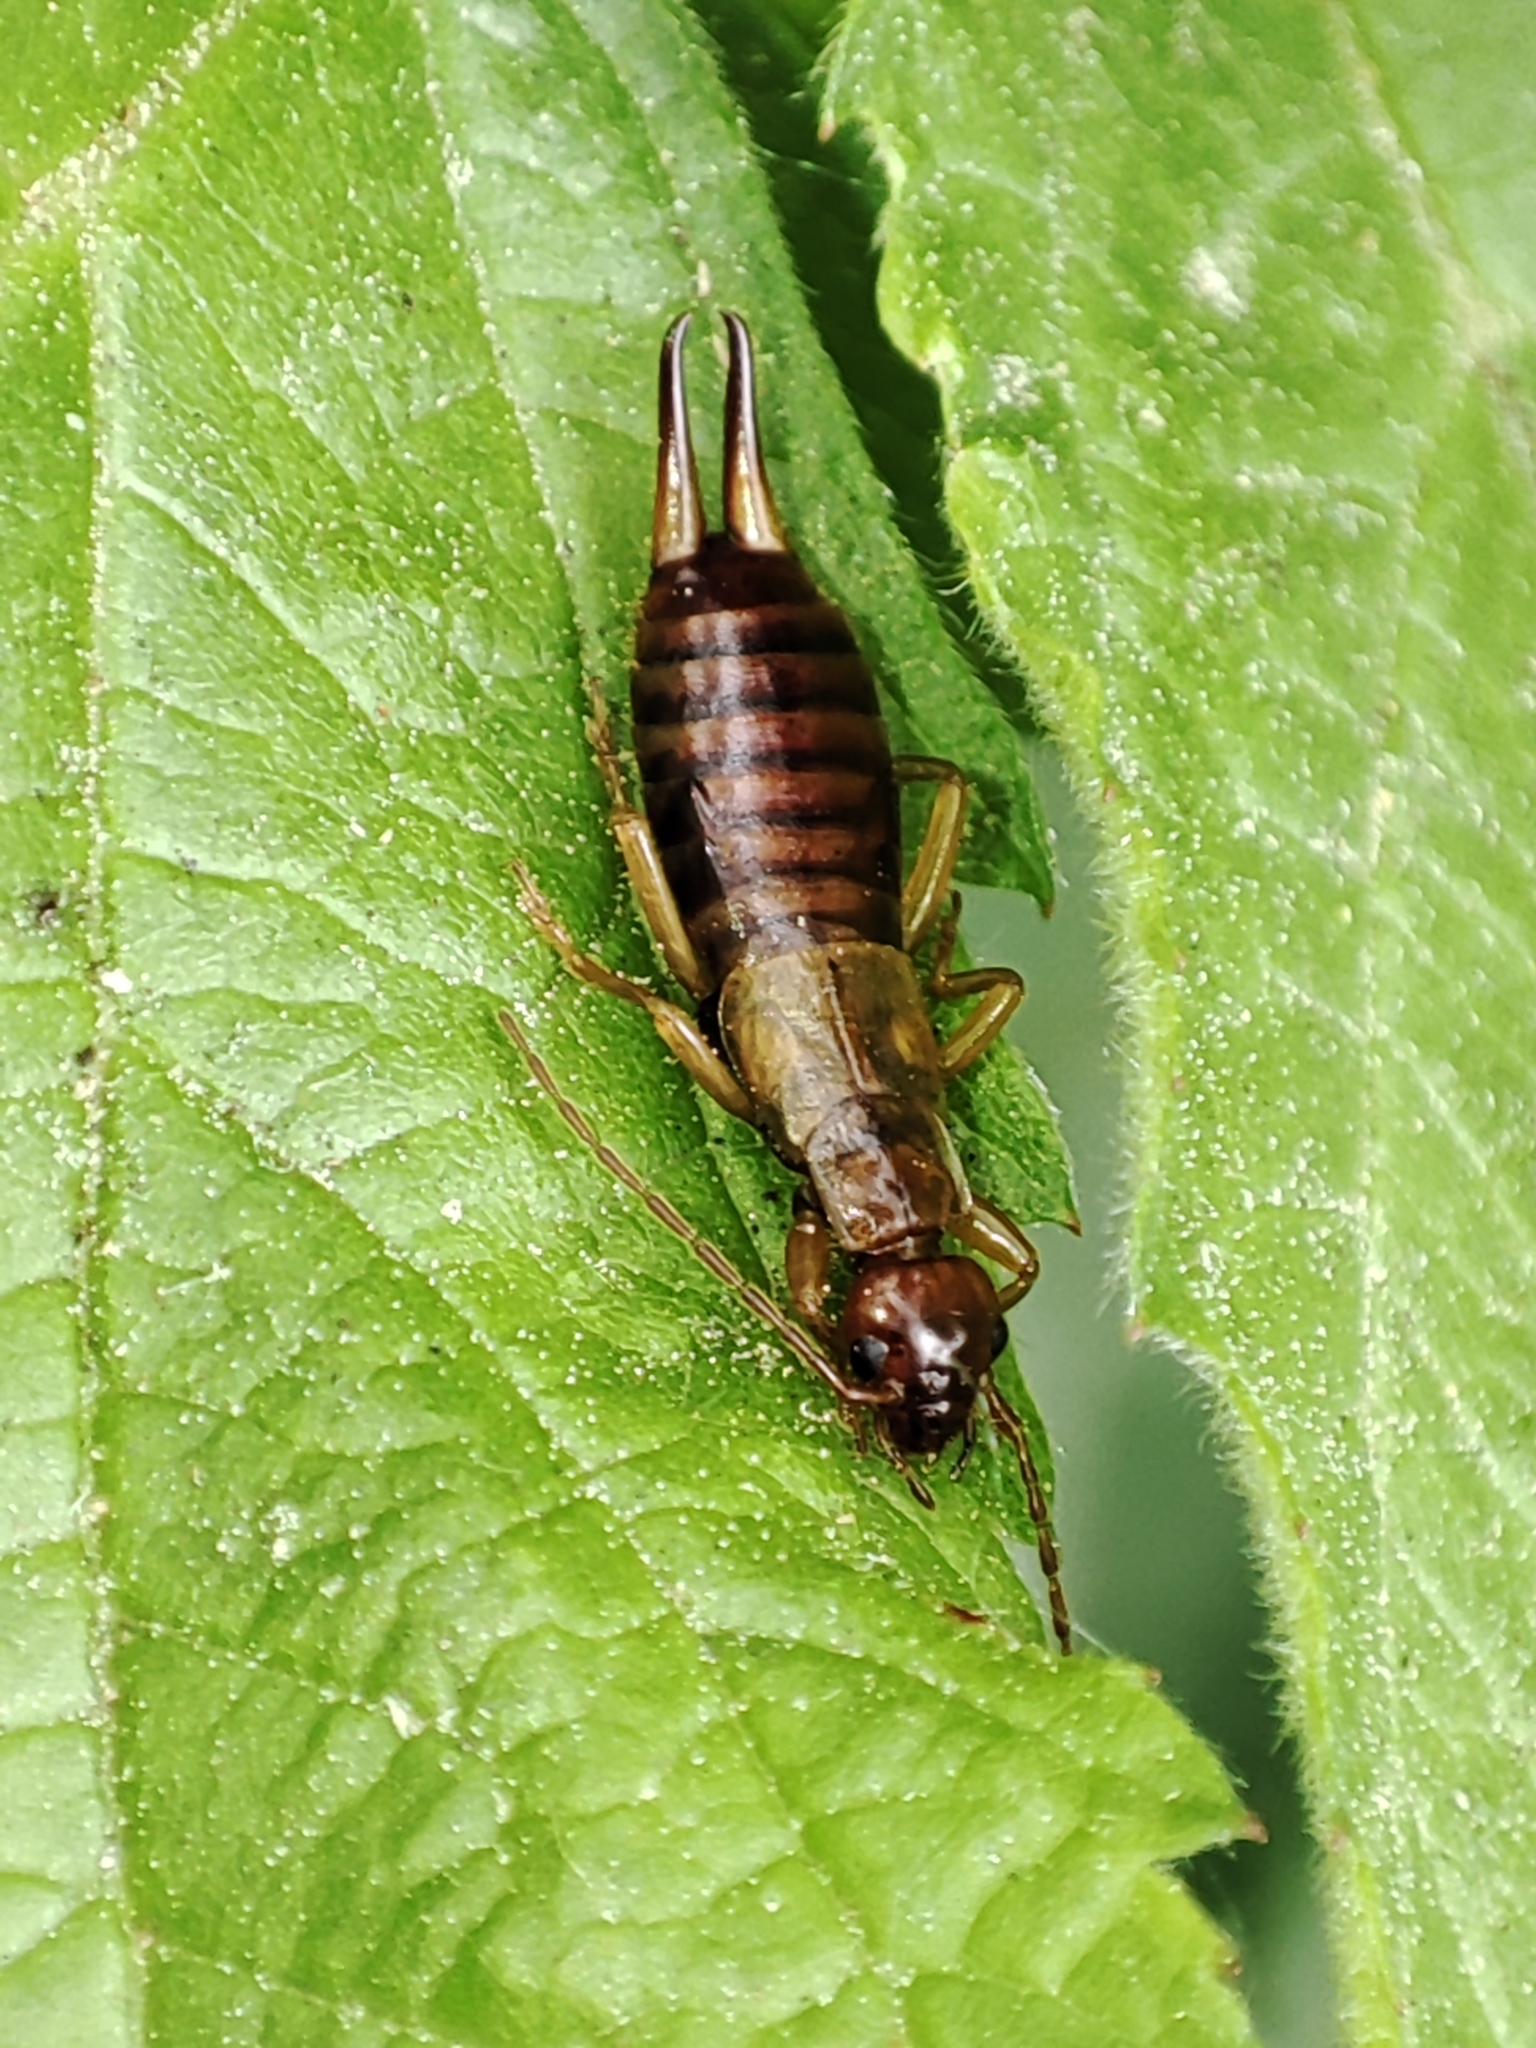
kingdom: Animalia
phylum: Arthropoda
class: Insecta
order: Dermaptera
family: Forficulidae
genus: Apterygida
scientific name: Apterygida albipennis
